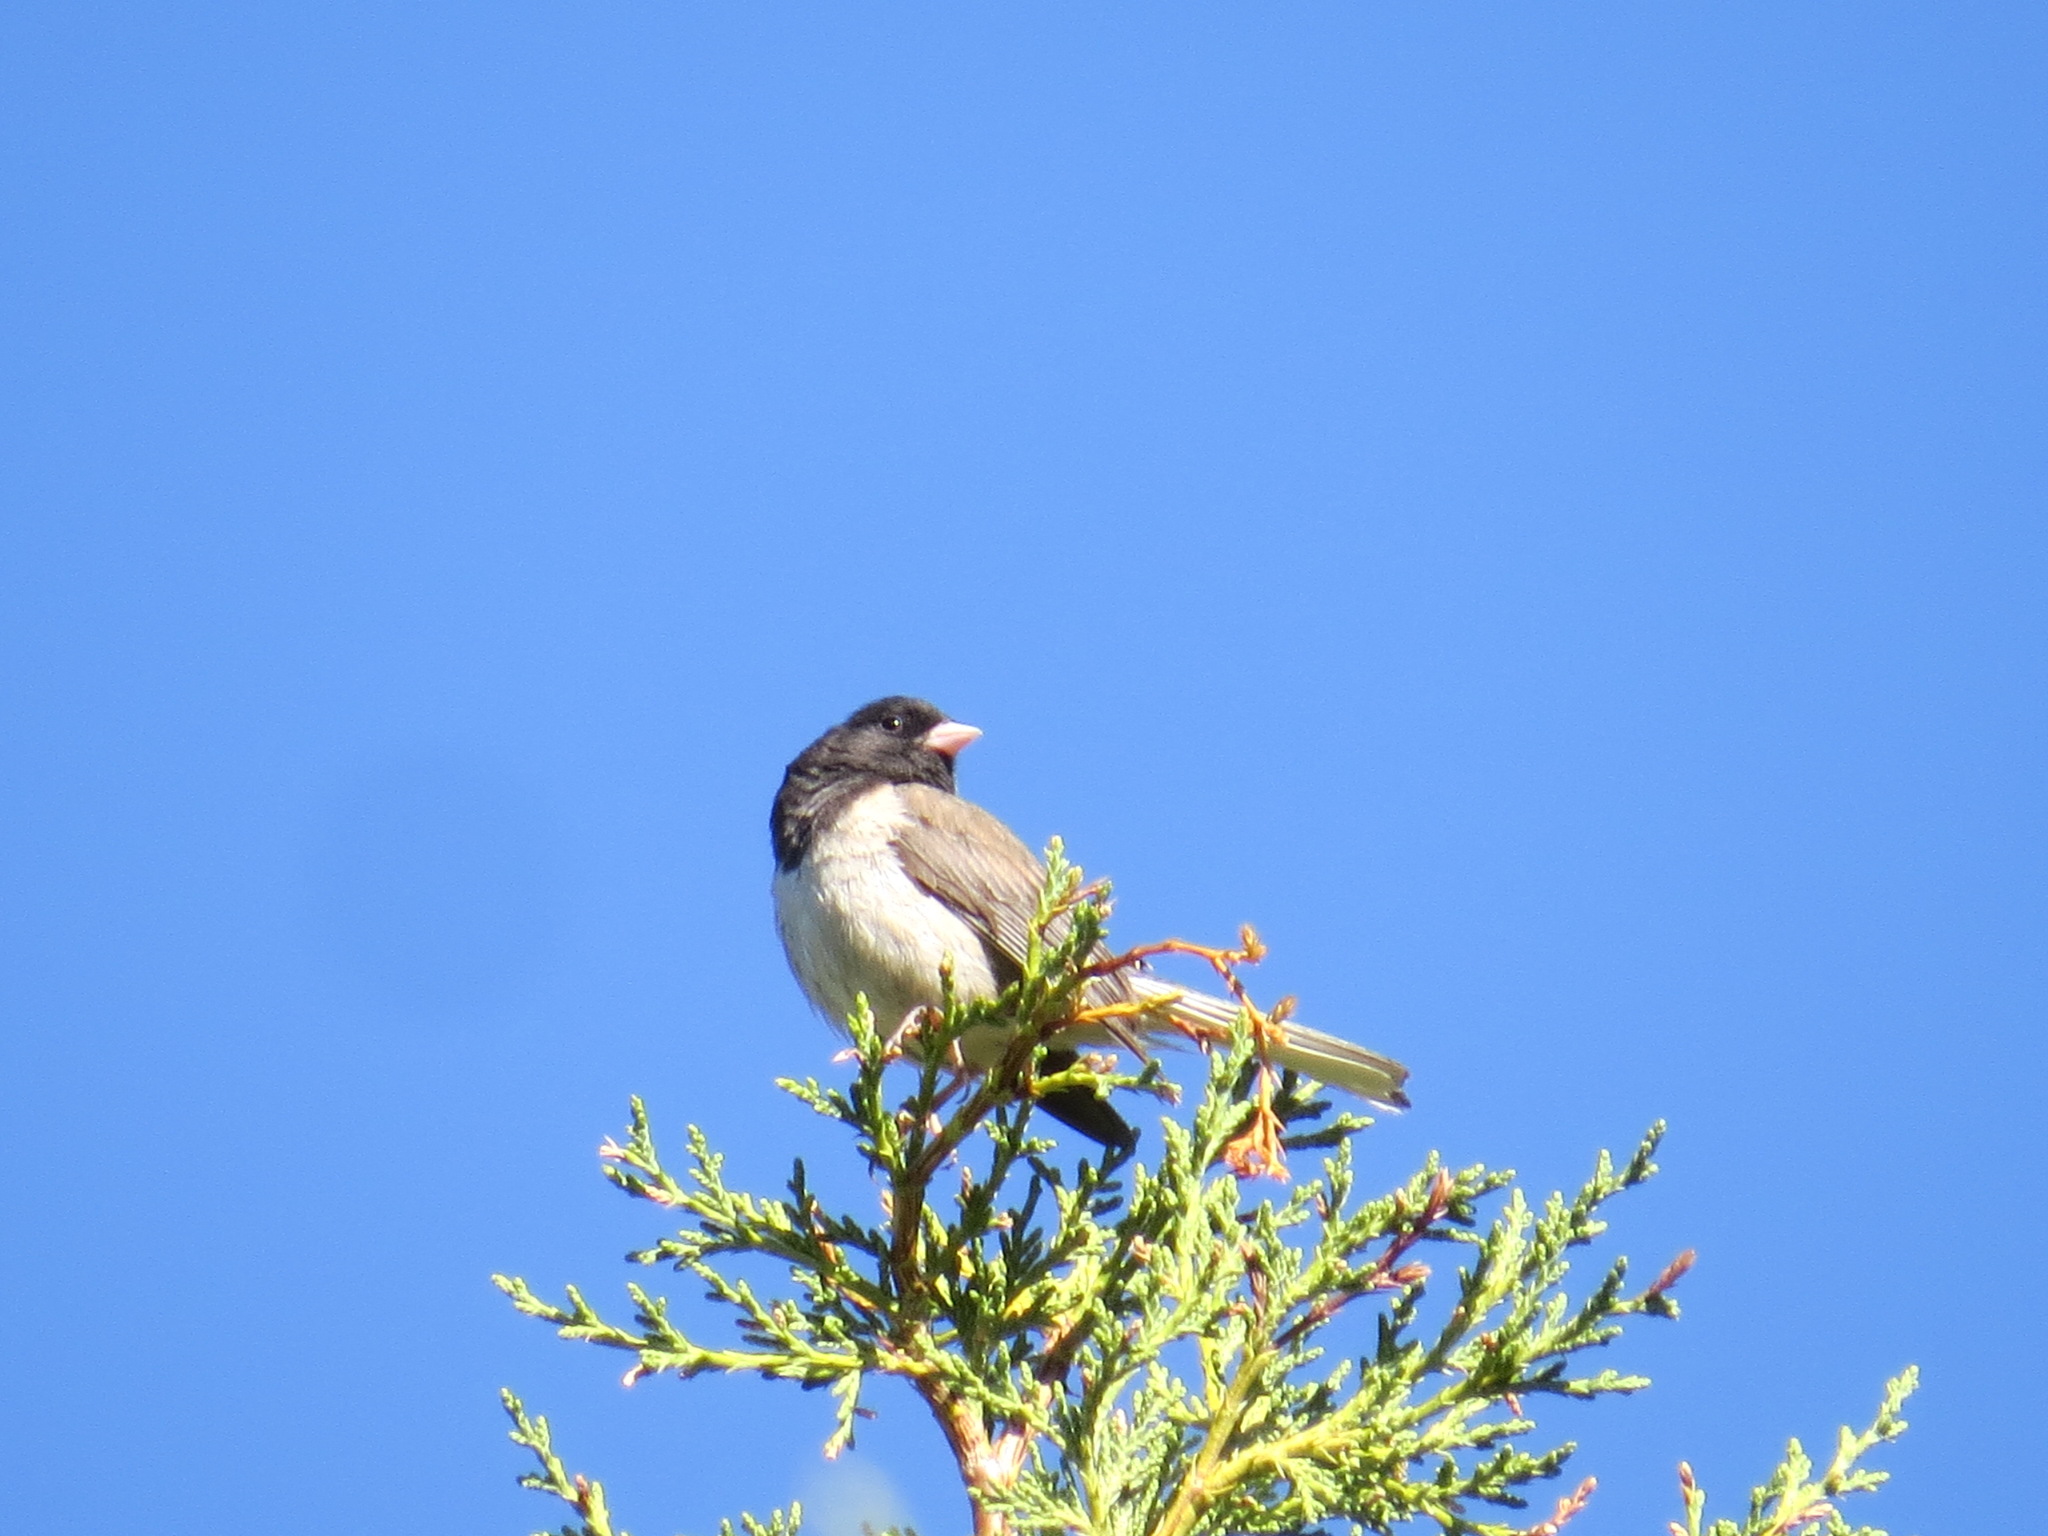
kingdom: Animalia
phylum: Chordata
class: Aves
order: Passeriformes
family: Passerellidae
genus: Junco
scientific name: Junco hyemalis
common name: Dark-eyed junco
